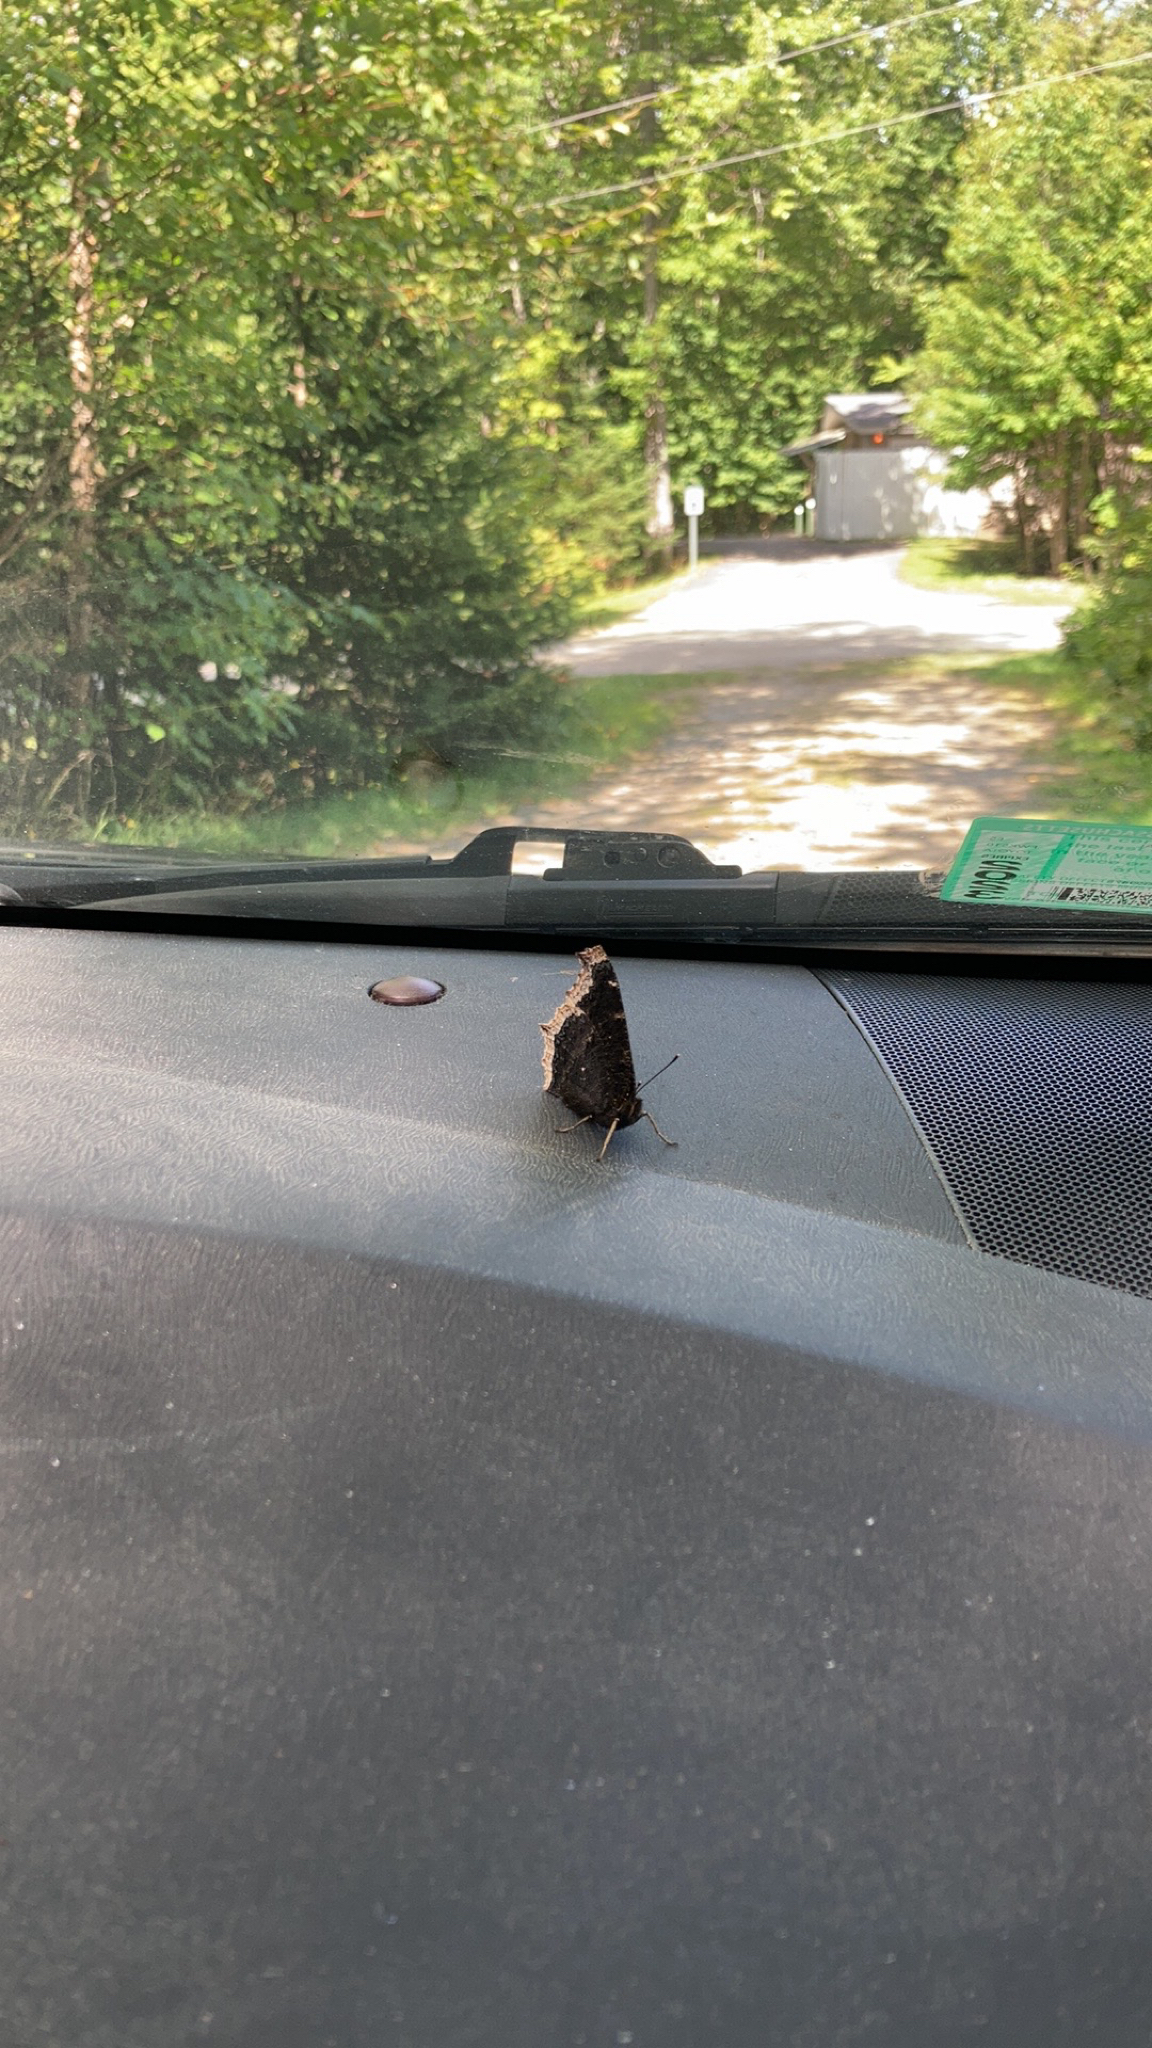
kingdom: Animalia
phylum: Arthropoda
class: Insecta
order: Lepidoptera
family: Nymphalidae
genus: Nymphalis
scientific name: Nymphalis antiopa
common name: Camberwell beauty
